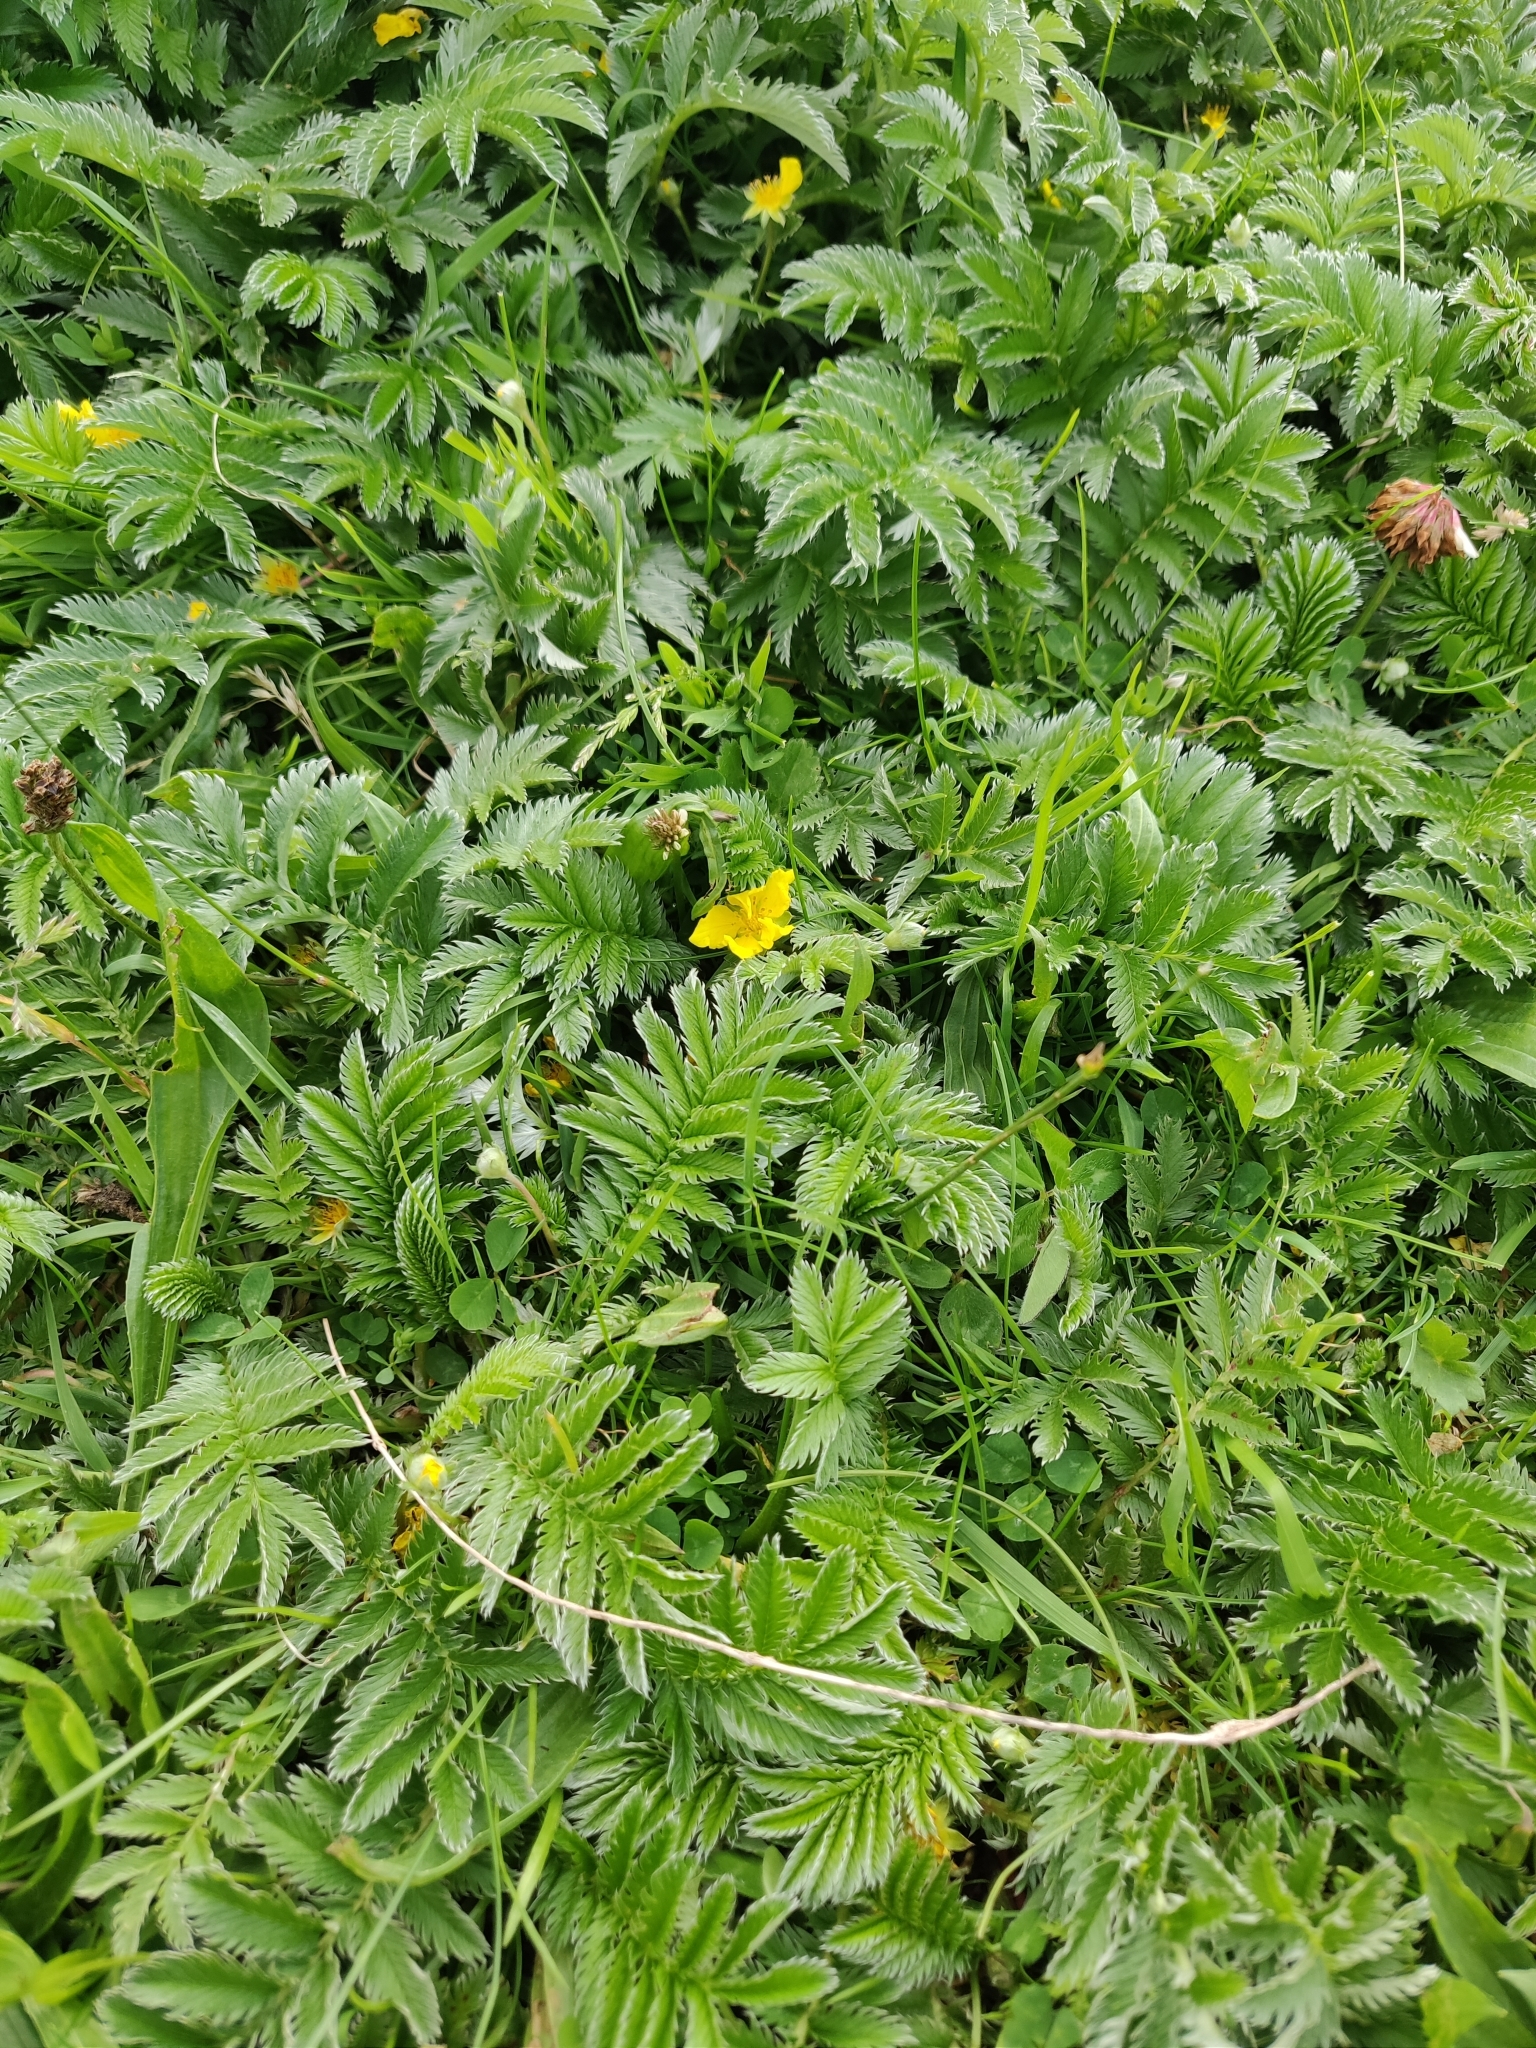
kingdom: Plantae
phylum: Tracheophyta
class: Magnoliopsida
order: Rosales
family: Rosaceae
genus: Argentina
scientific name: Argentina anserina
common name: Common silverweed
